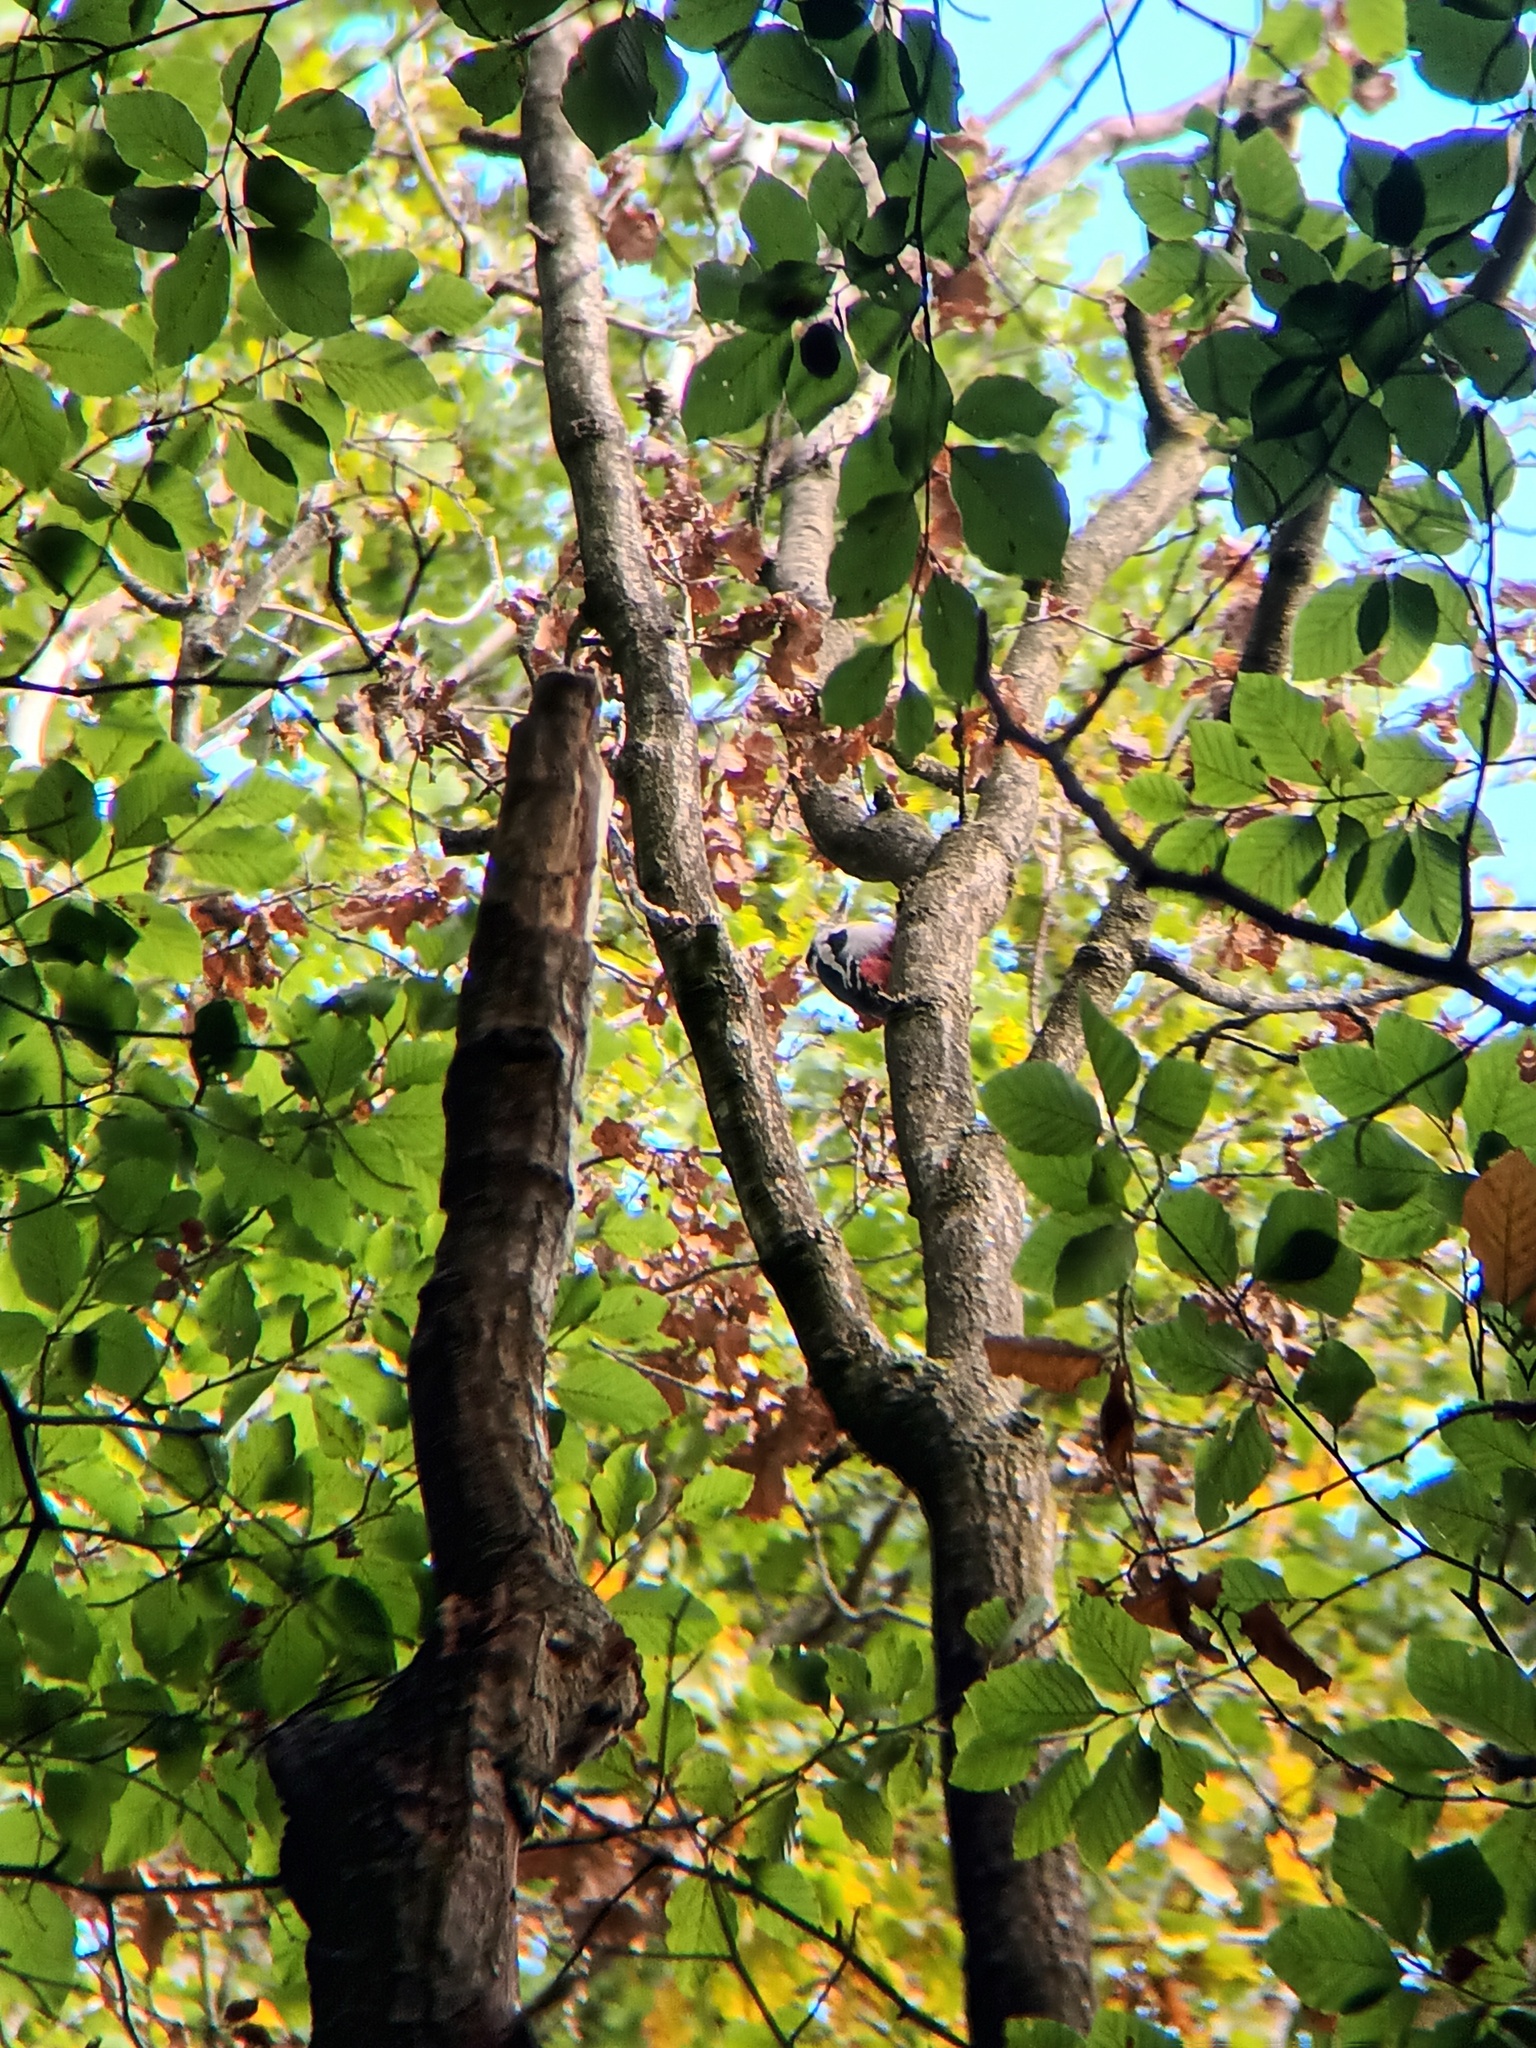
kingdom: Animalia
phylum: Chordata
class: Aves
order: Piciformes
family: Picidae
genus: Dendrocopos
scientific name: Dendrocopos major
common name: Great spotted woodpecker
